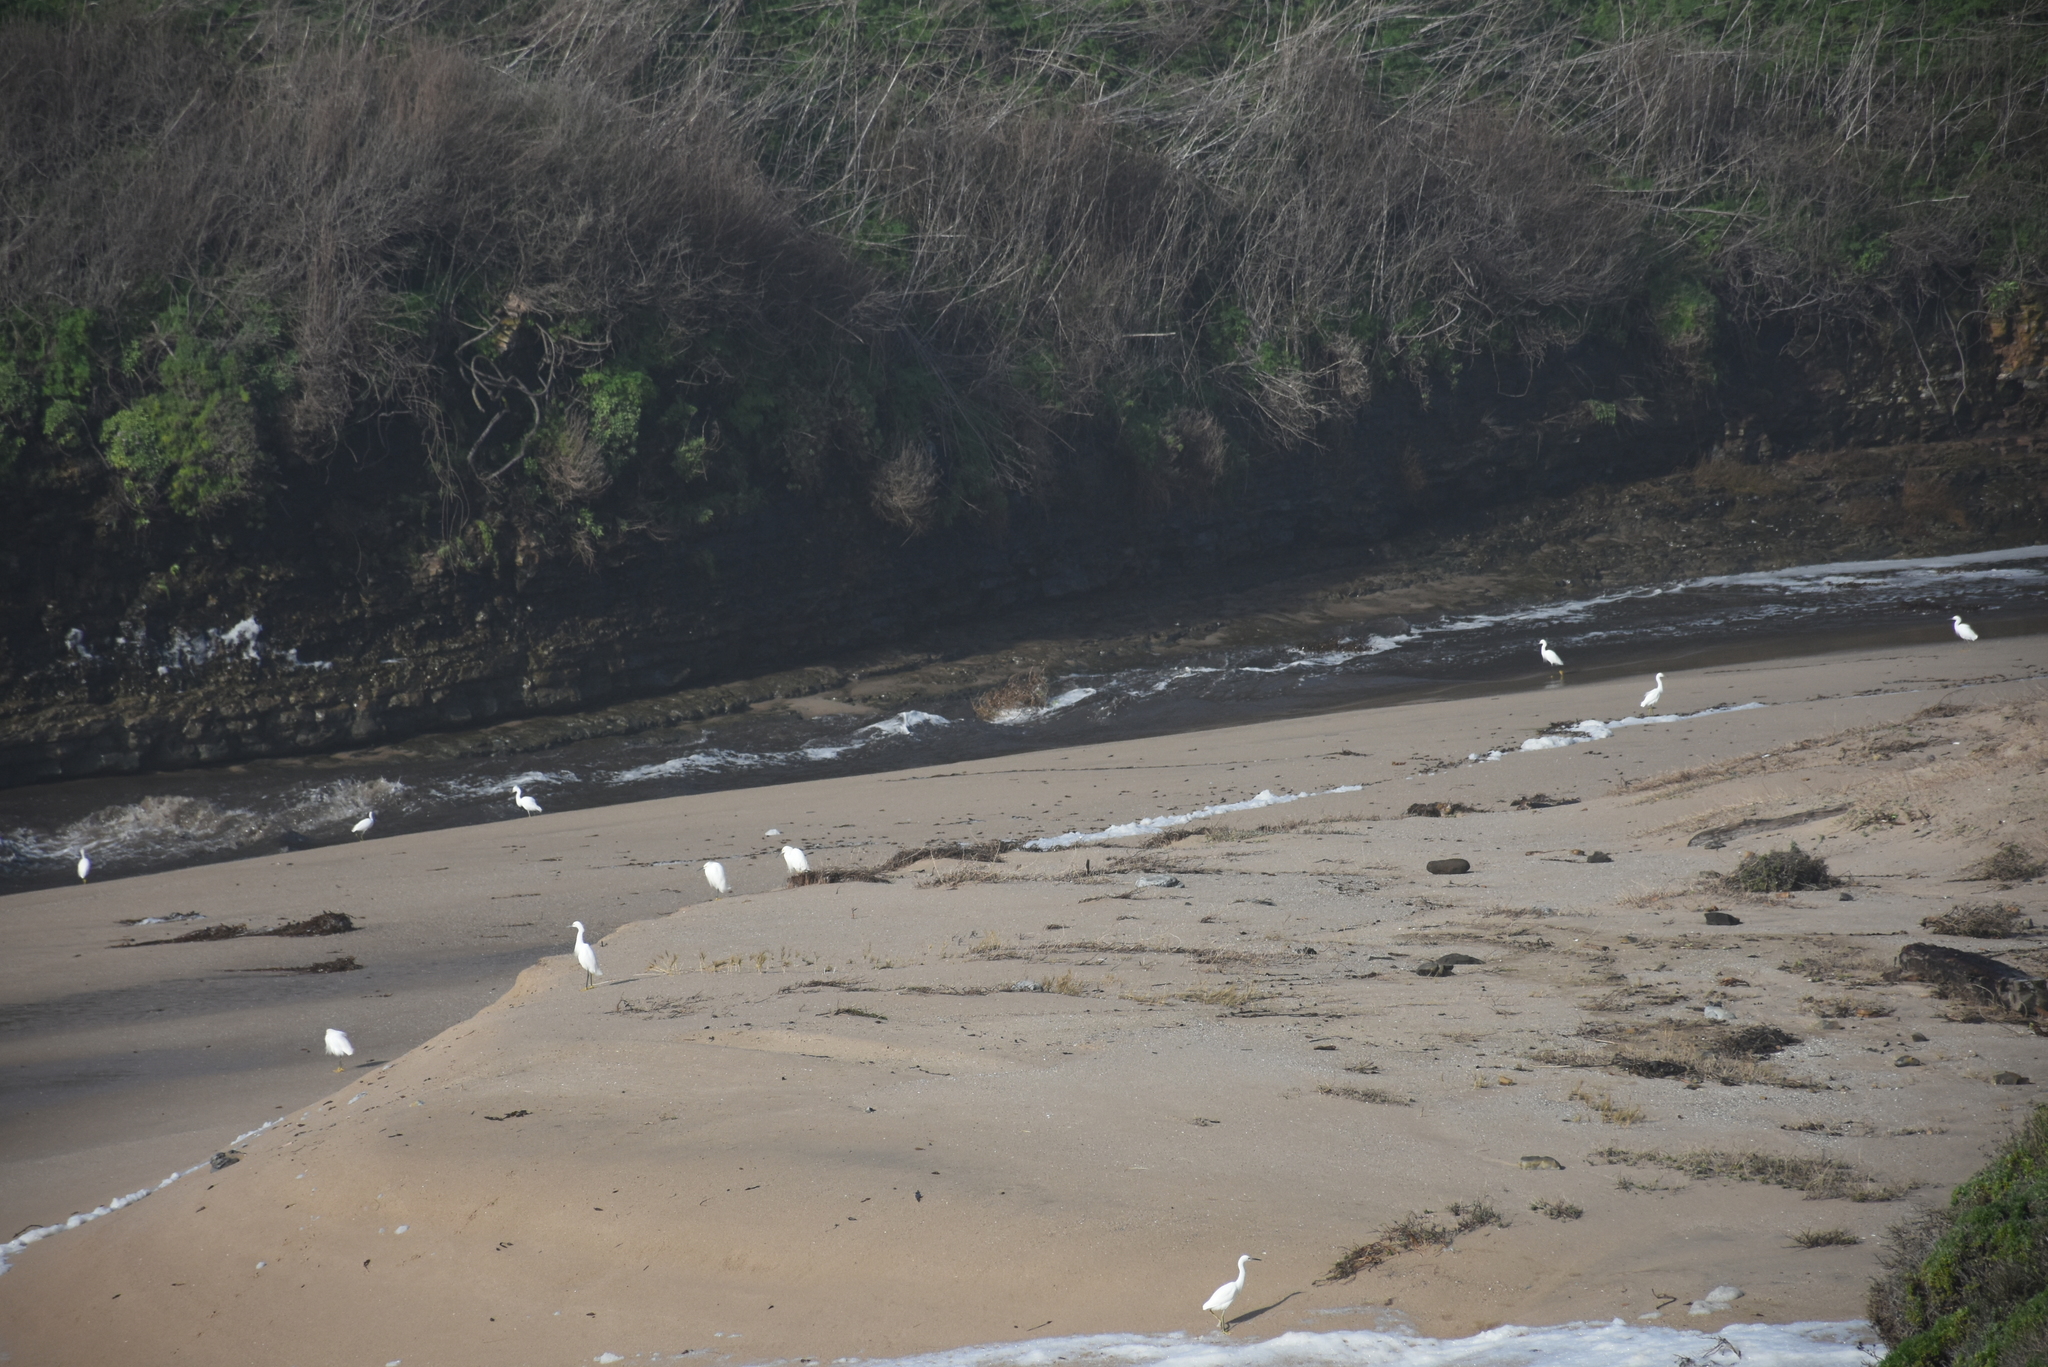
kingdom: Animalia
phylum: Chordata
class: Aves
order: Pelecaniformes
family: Ardeidae
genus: Egretta
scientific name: Egretta thula
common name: Snowy egret
